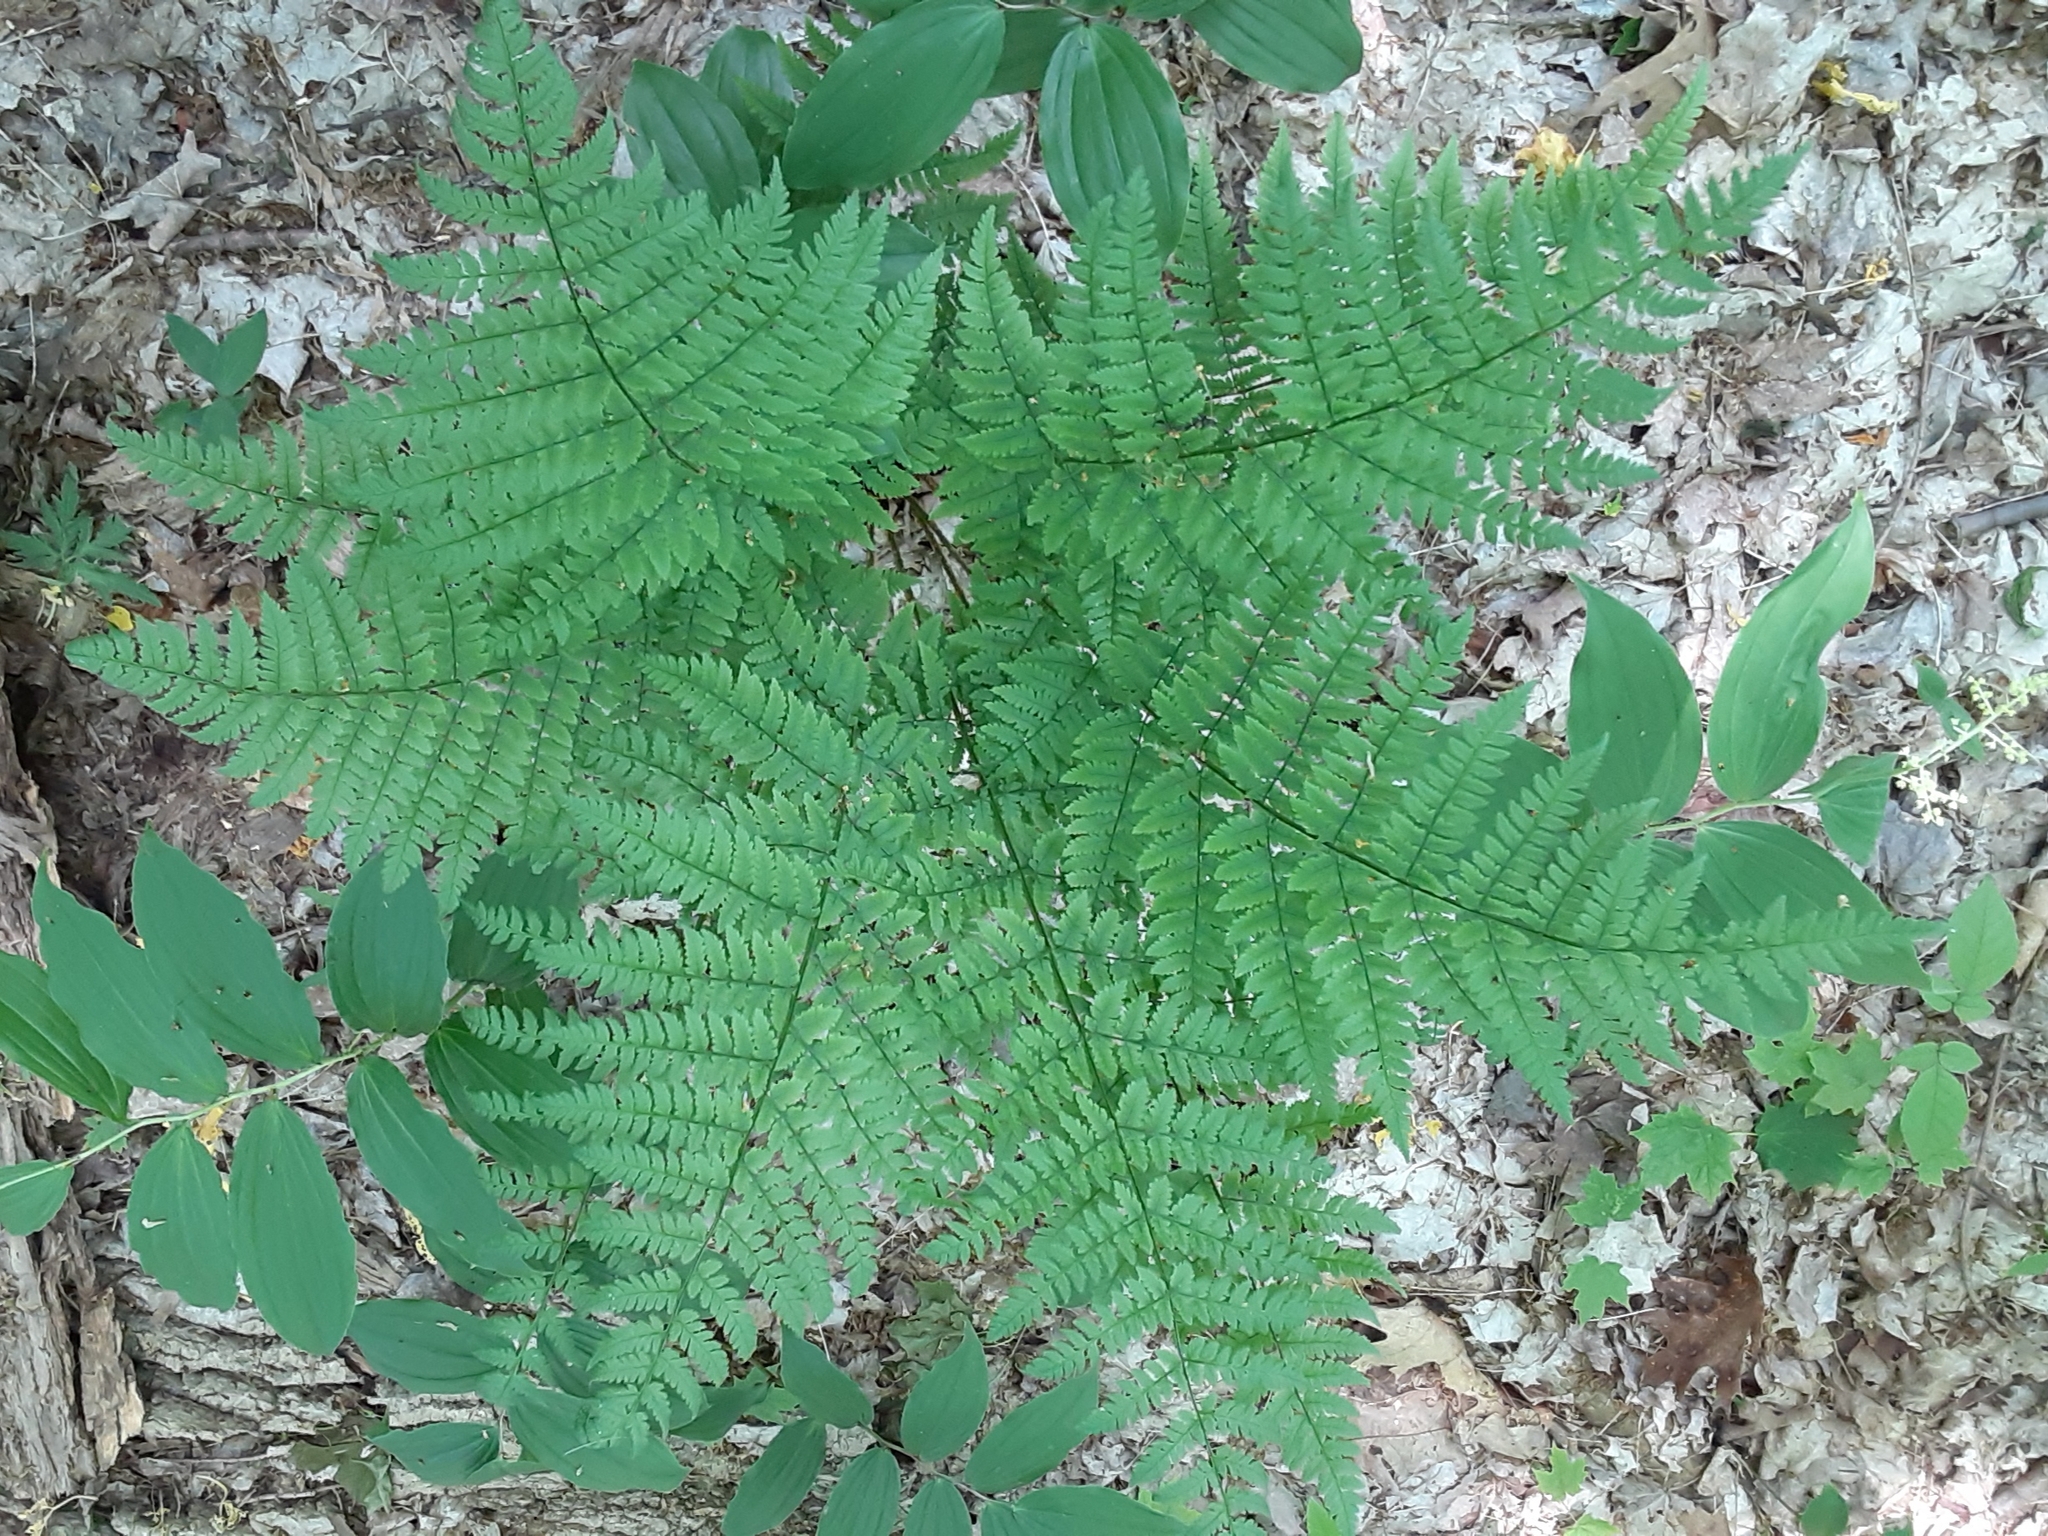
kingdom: Plantae
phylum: Tracheophyta
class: Polypodiopsida
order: Polypodiales
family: Dryopteridaceae
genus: Dryopteris
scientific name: Dryopteris intermedia
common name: Evergreen wood fern
